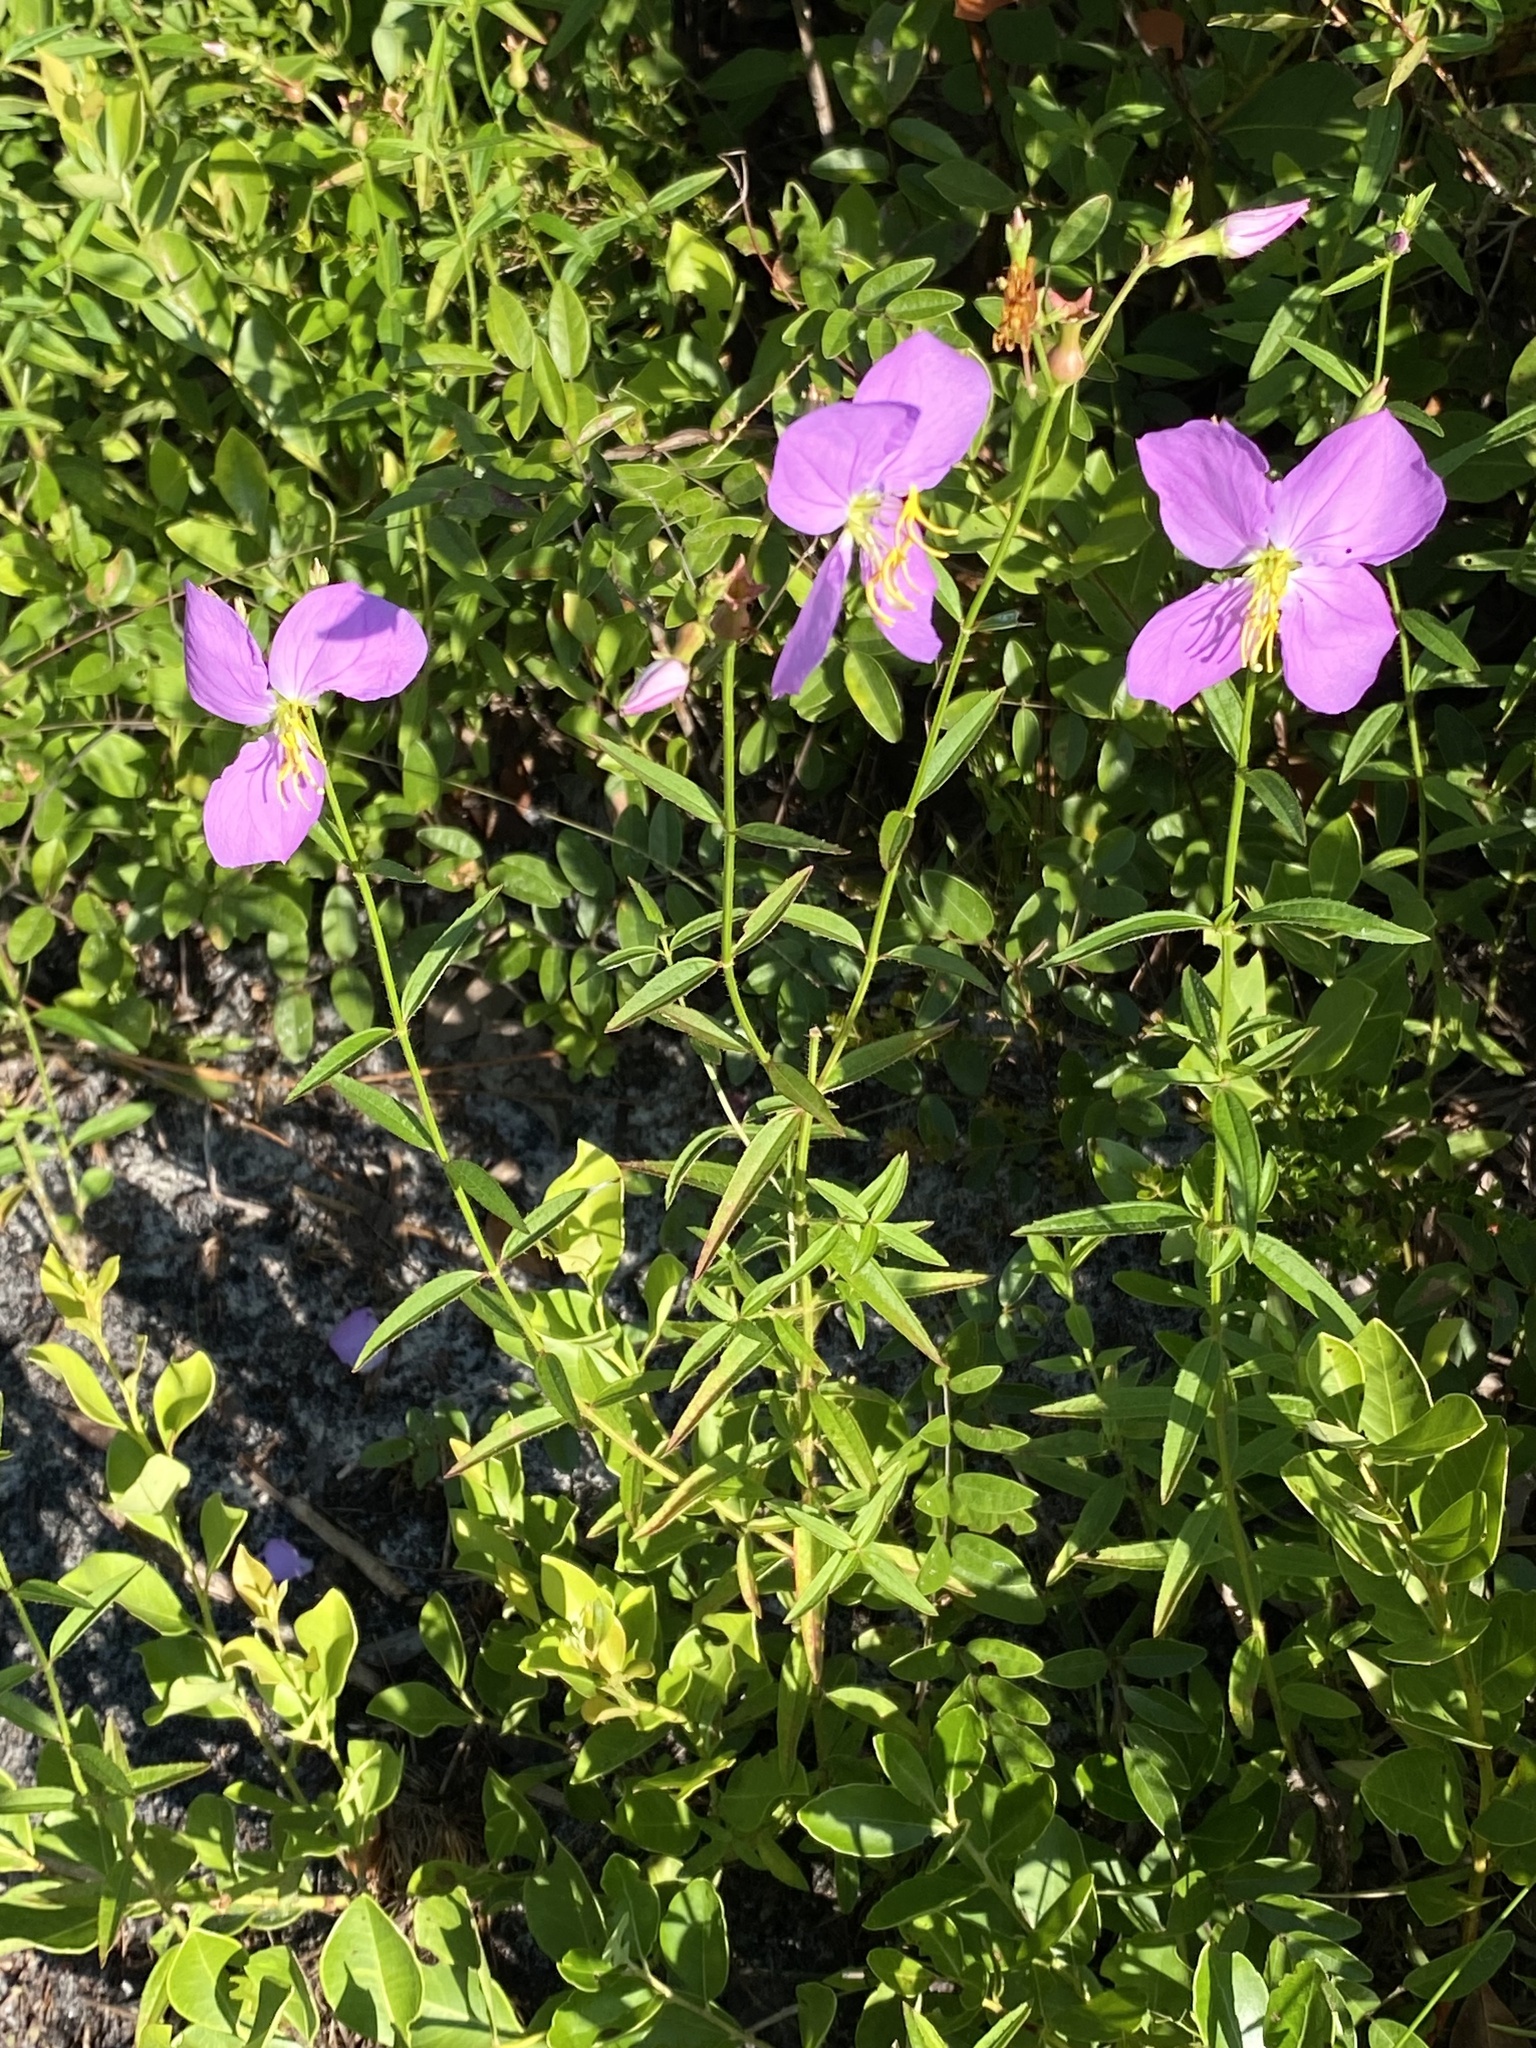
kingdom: Plantae
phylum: Tracheophyta
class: Magnoliopsida
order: Myrtales
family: Melastomataceae
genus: Rhexia
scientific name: Rhexia nashii
